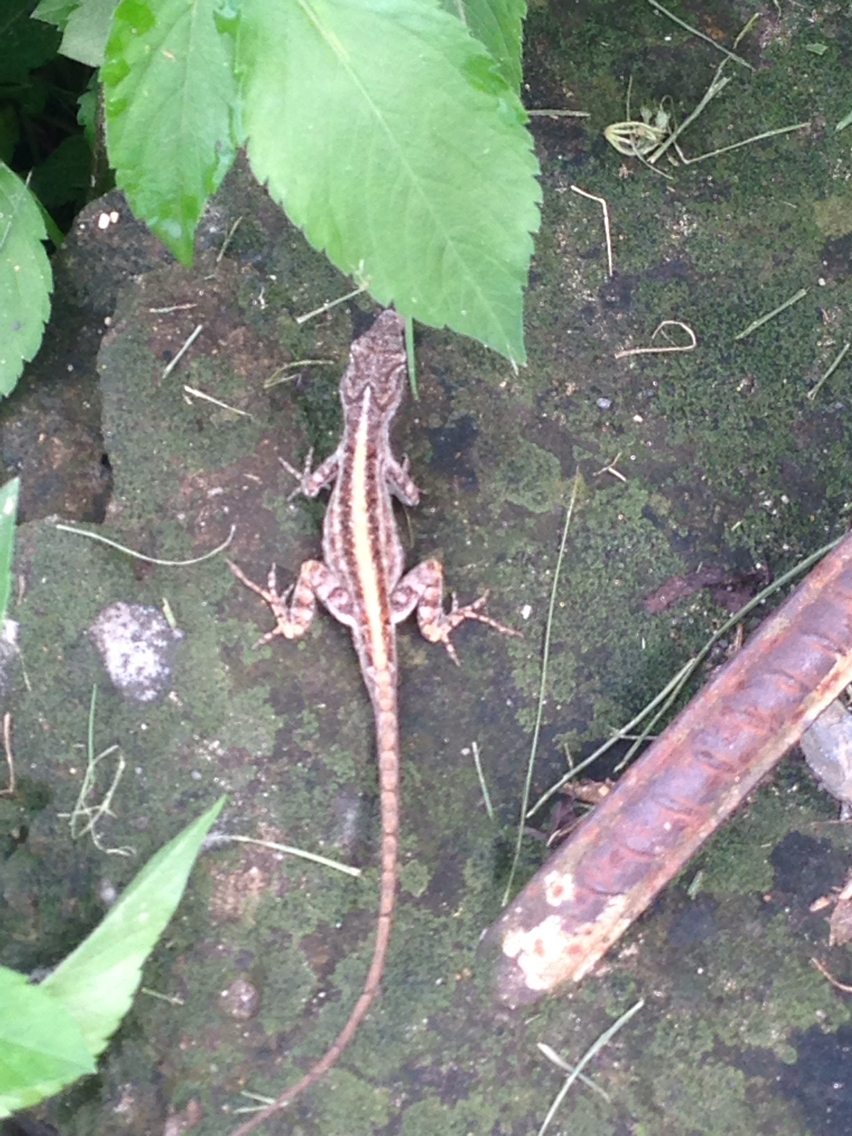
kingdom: Animalia
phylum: Chordata
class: Squamata
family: Dactyloidae
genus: Anolis
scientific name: Anolis sagrei
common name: Brown anole
